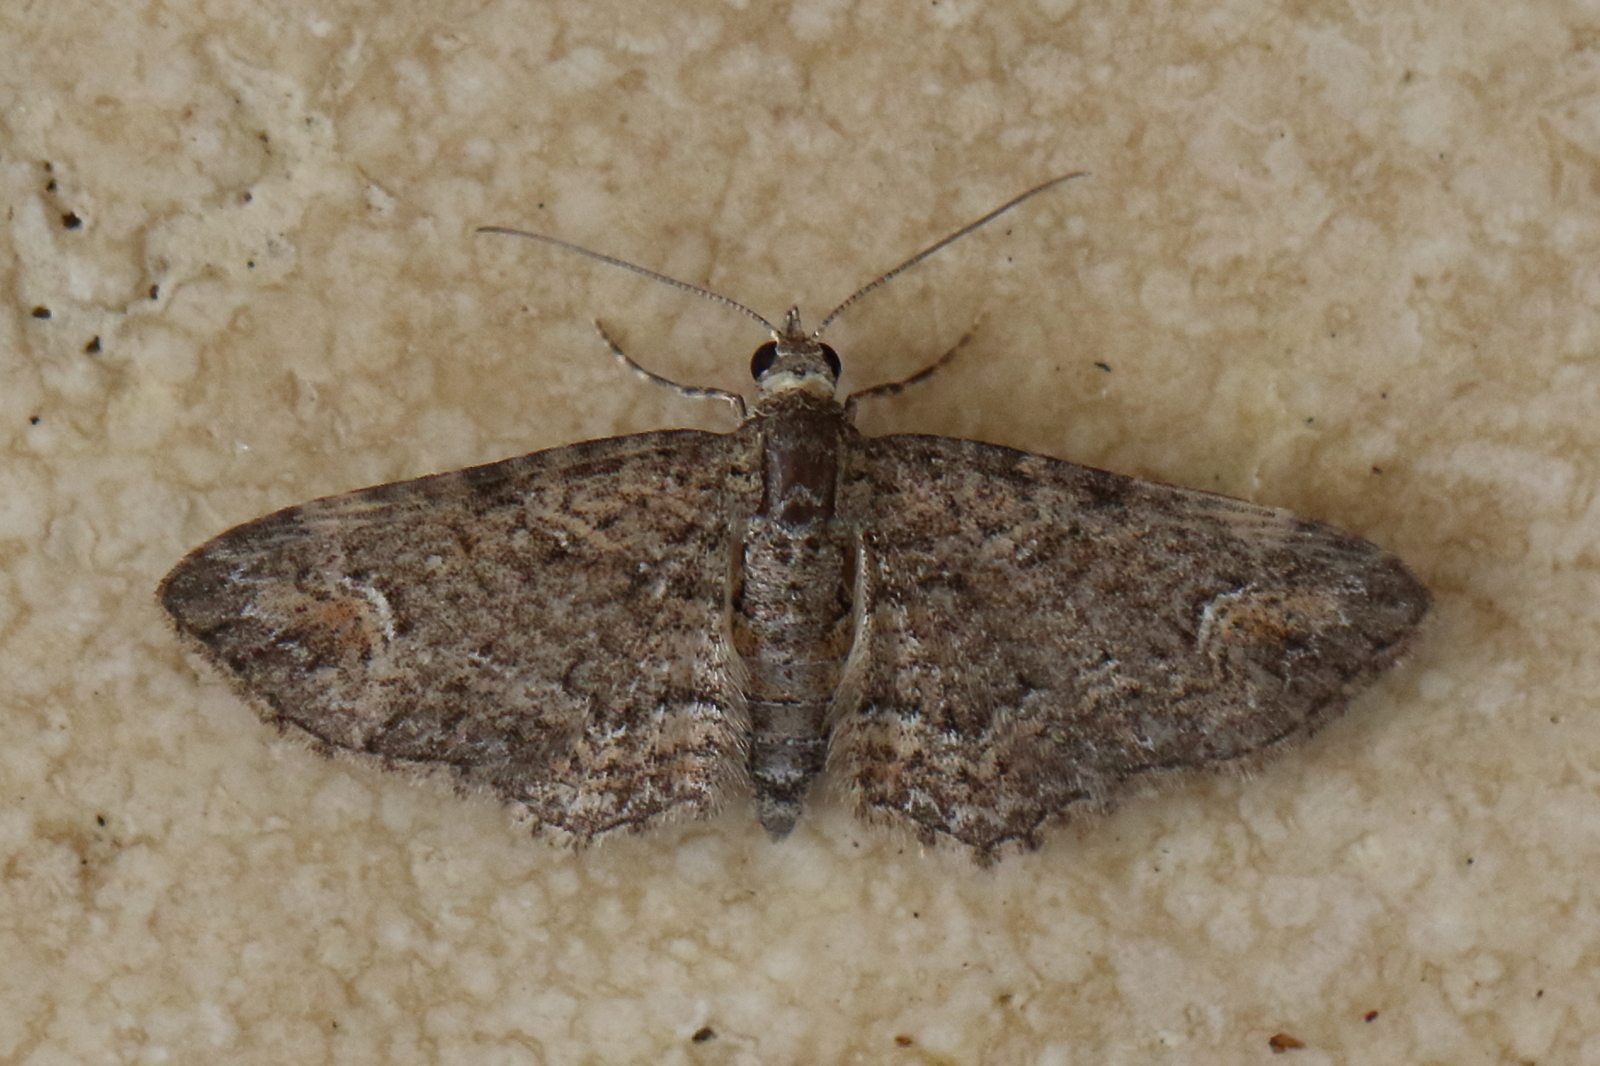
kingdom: Animalia
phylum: Arthropoda
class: Insecta
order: Lepidoptera
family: Geometridae
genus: Pasiphilodes
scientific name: Pasiphilodes testulata
